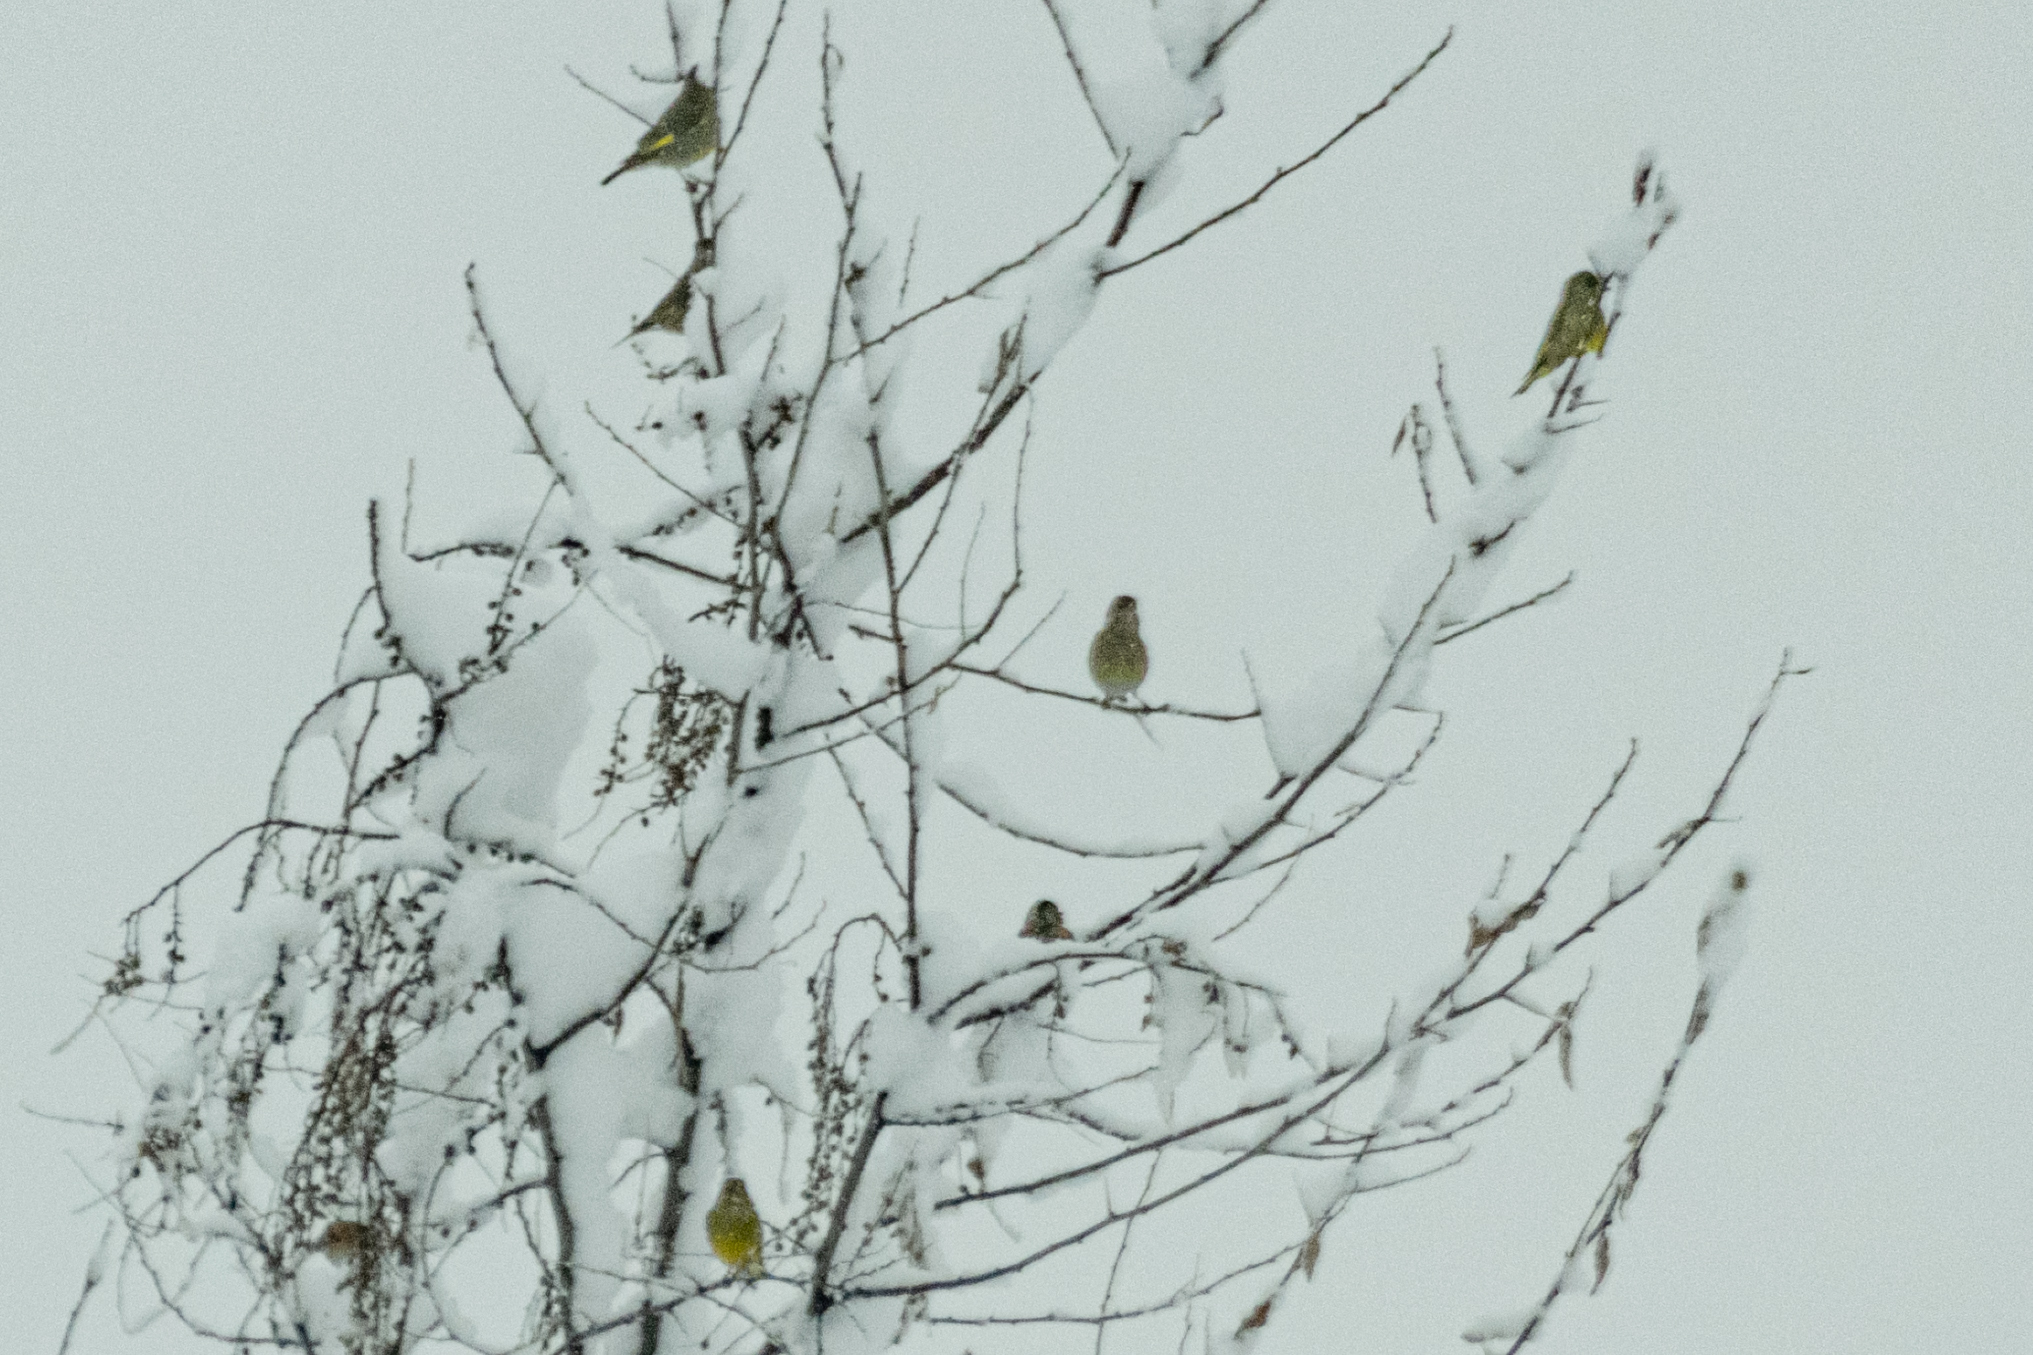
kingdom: Plantae
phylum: Tracheophyta
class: Liliopsida
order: Poales
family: Poaceae
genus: Chloris
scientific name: Chloris chloris
